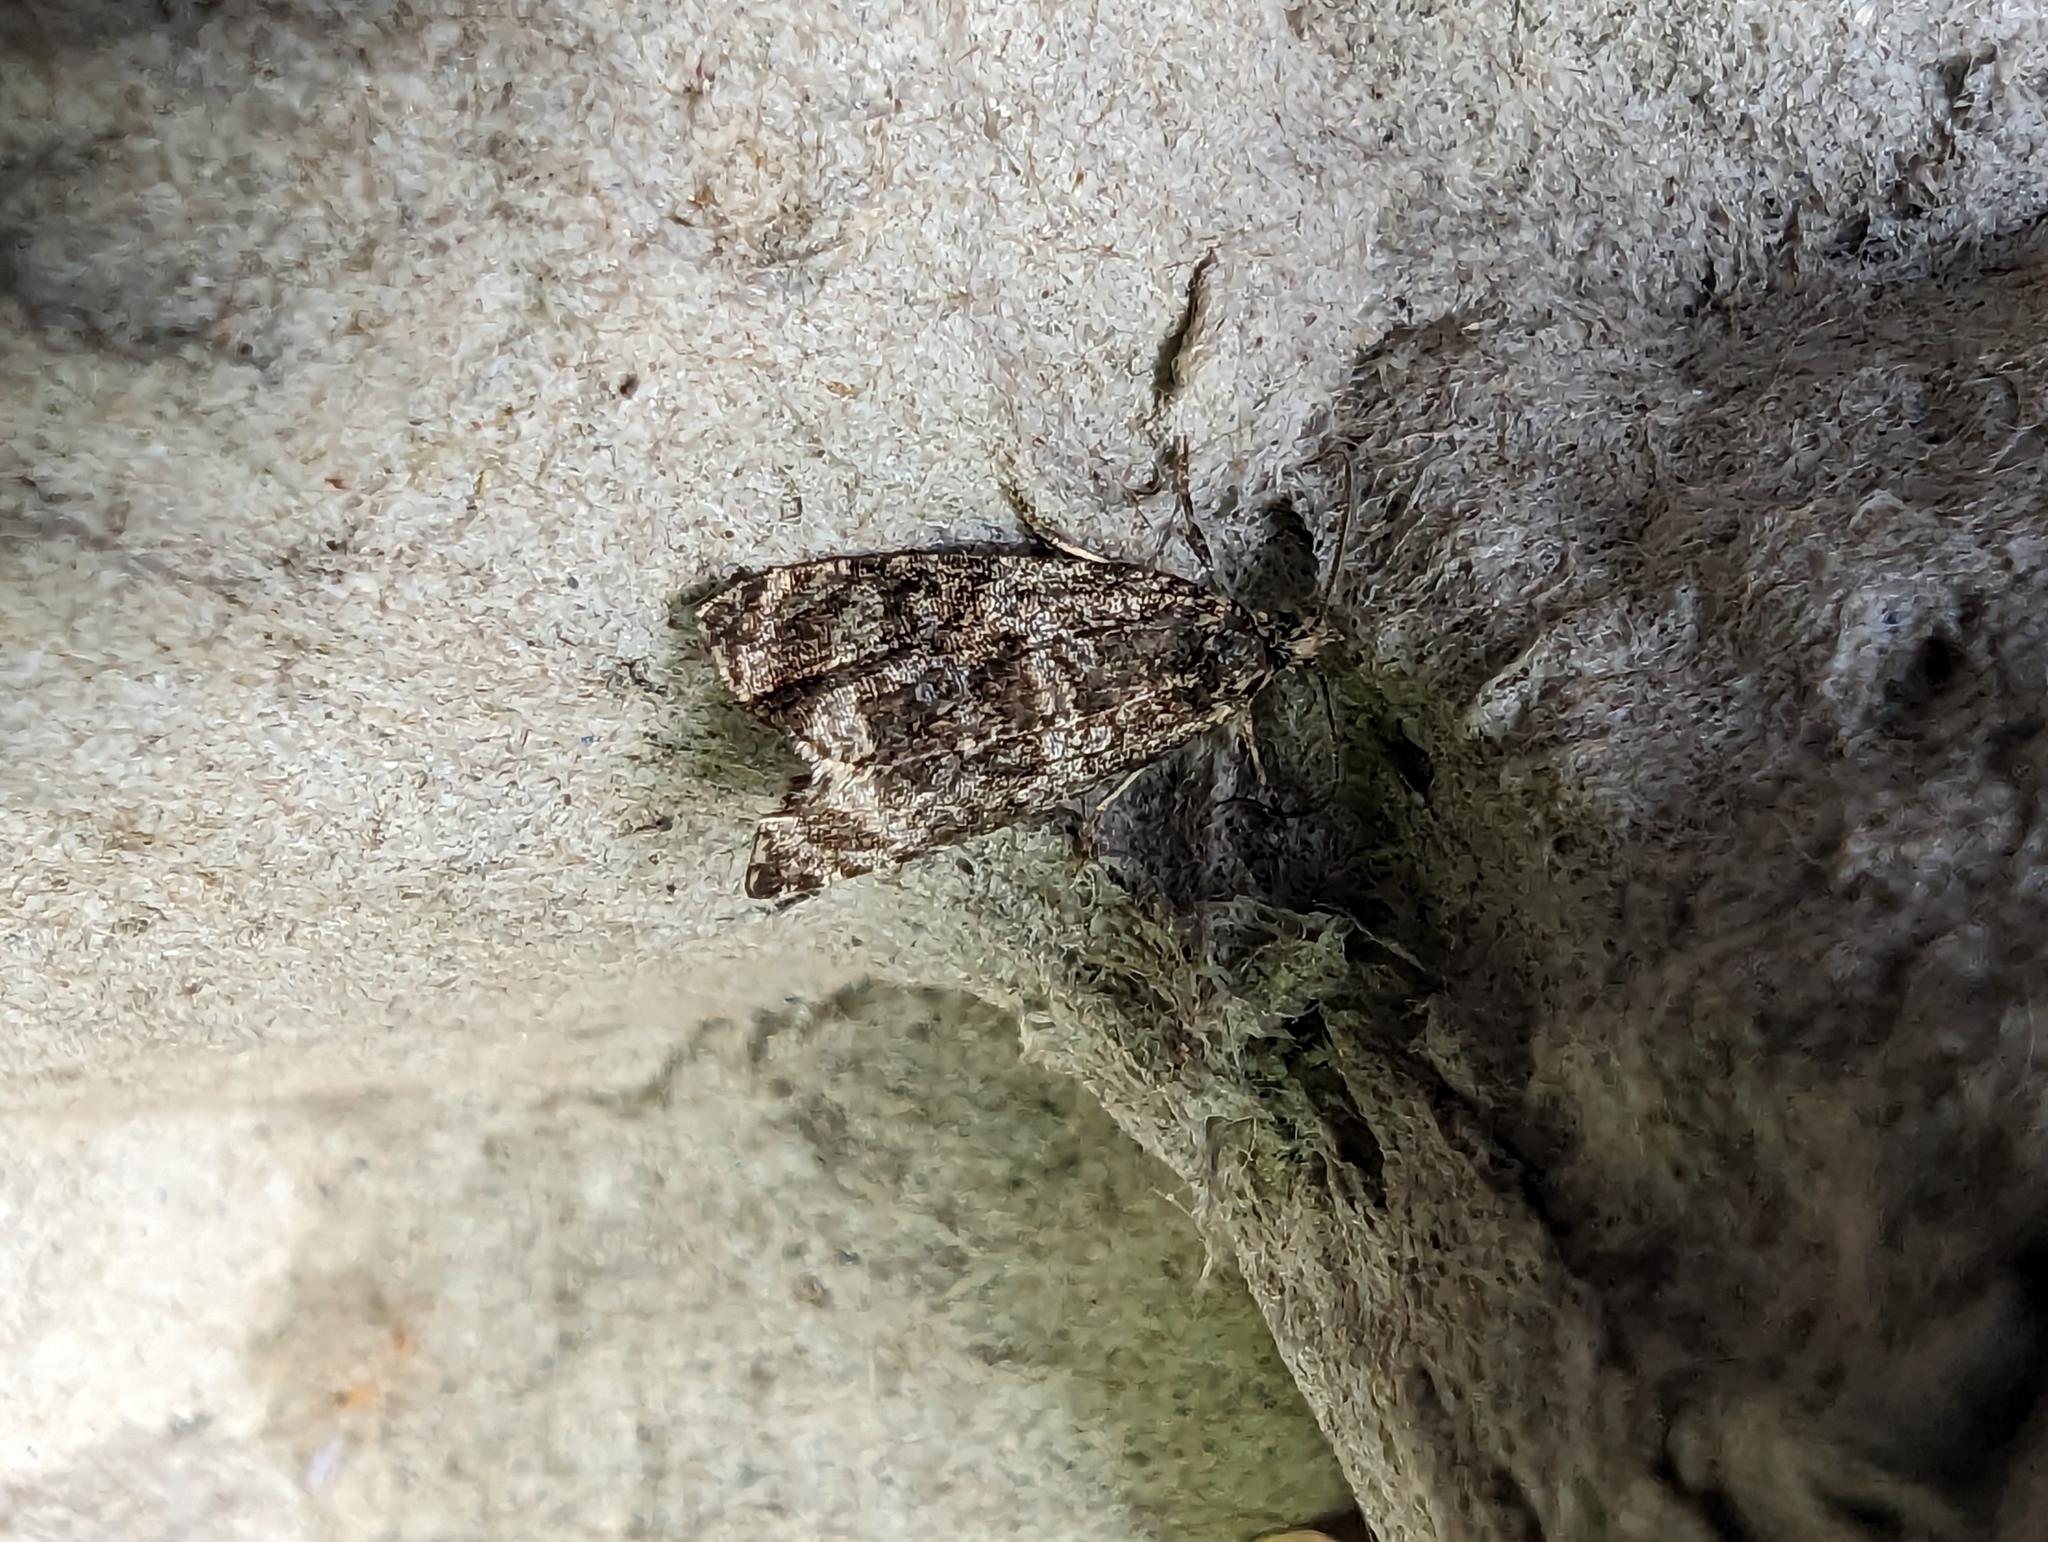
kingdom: Animalia
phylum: Arthropoda
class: Insecta
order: Lepidoptera
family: Tortricidae
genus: Syricoris
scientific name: Syricoris lacunana
